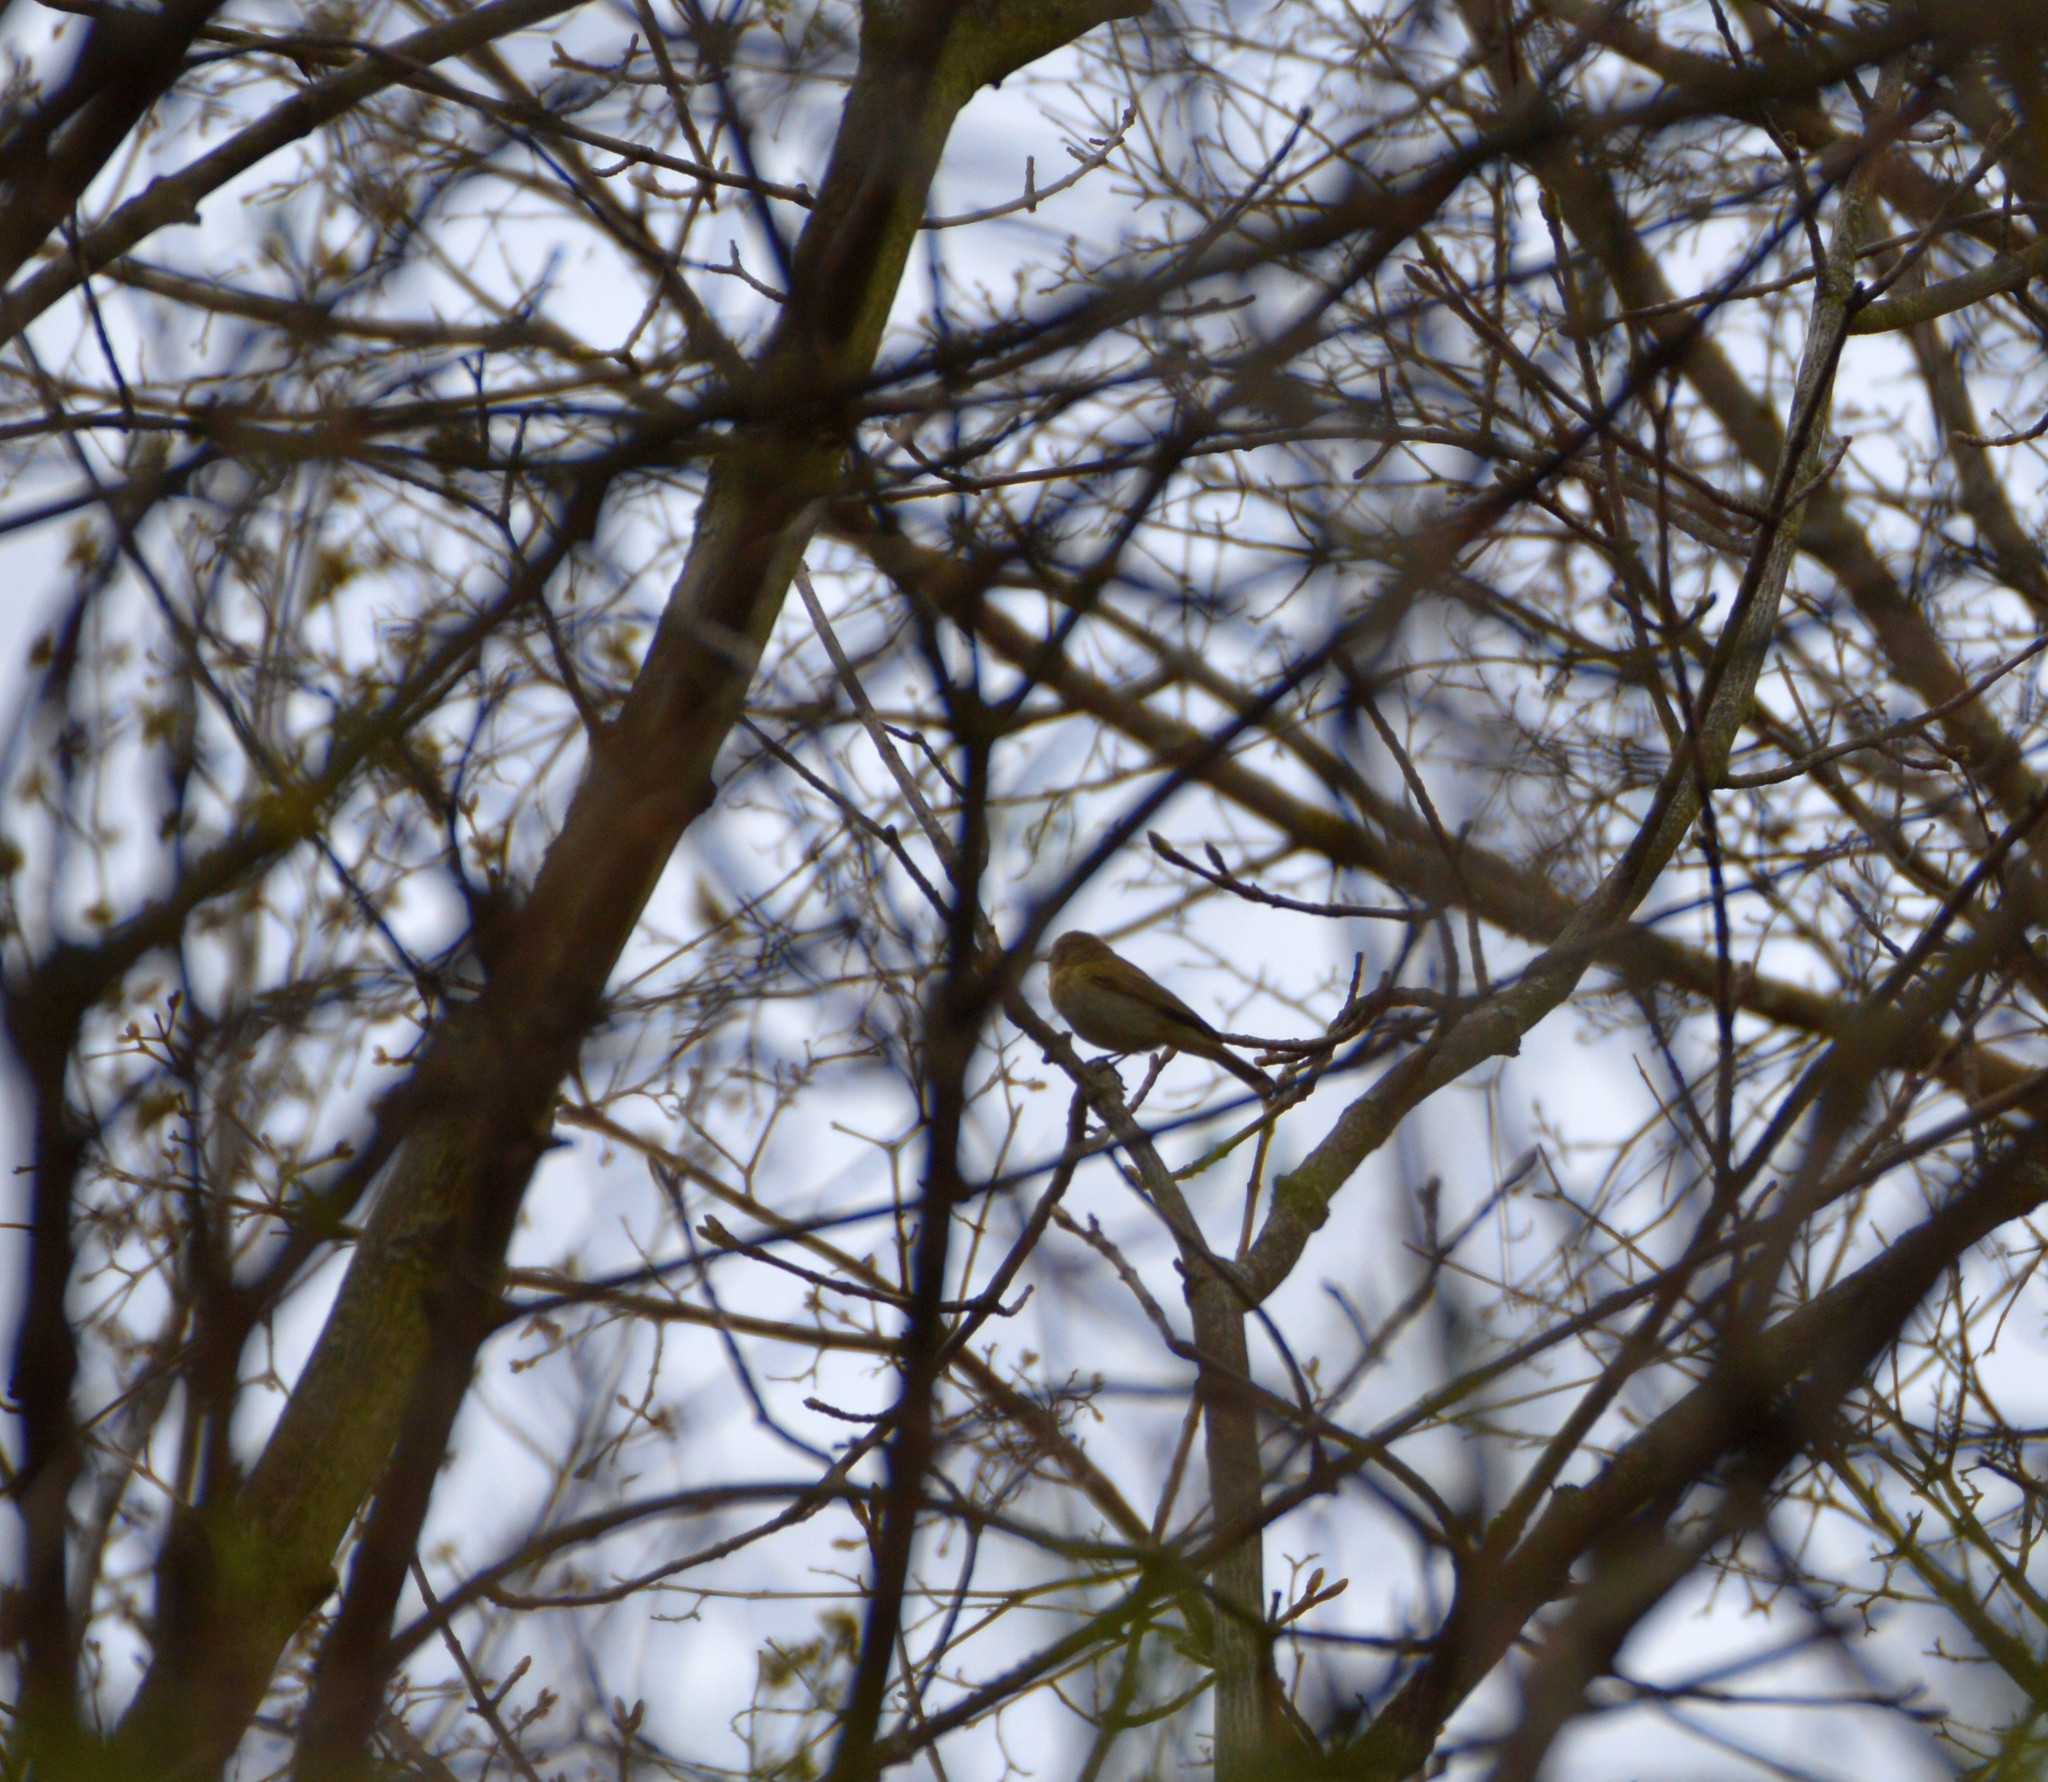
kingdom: Animalia
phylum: Chordata
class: Aves
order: Passeriformes
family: Phylloscopidae
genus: Phylloscopus
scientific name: Phylloscopus collybita
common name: Common chiffchaff
